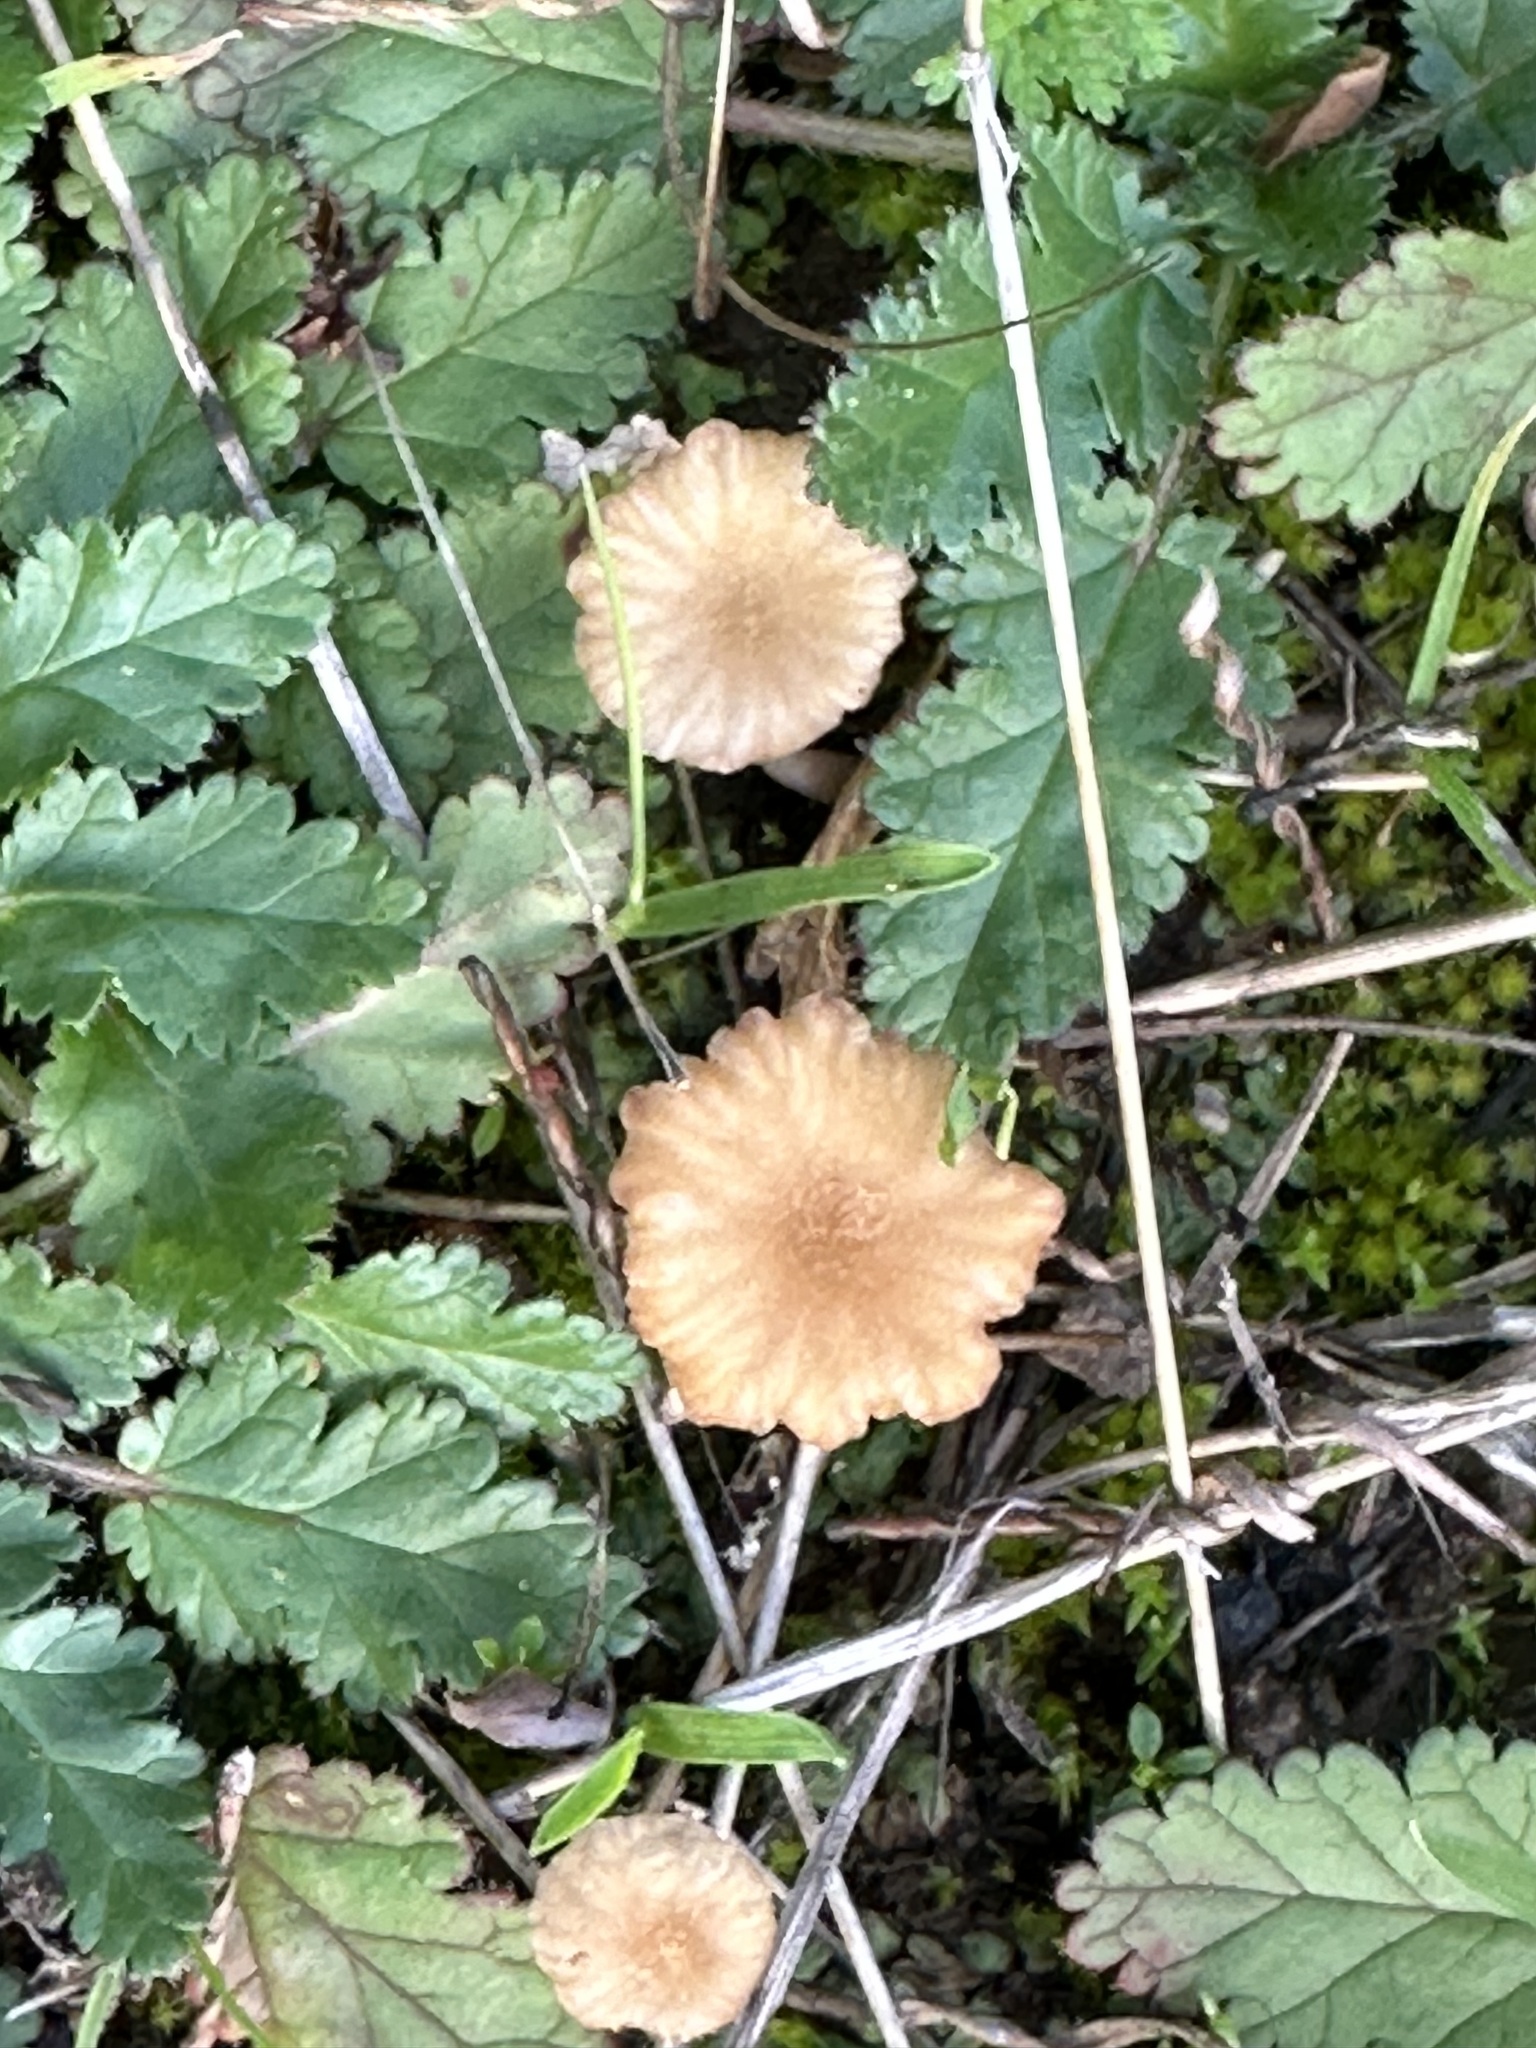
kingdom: Fungi
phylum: Basidiomycota
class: Agaricomycetes
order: Hymenochaetales
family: Rickenellaceae
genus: Contumyces
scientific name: Contumyces rosellus
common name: Rosy navel
